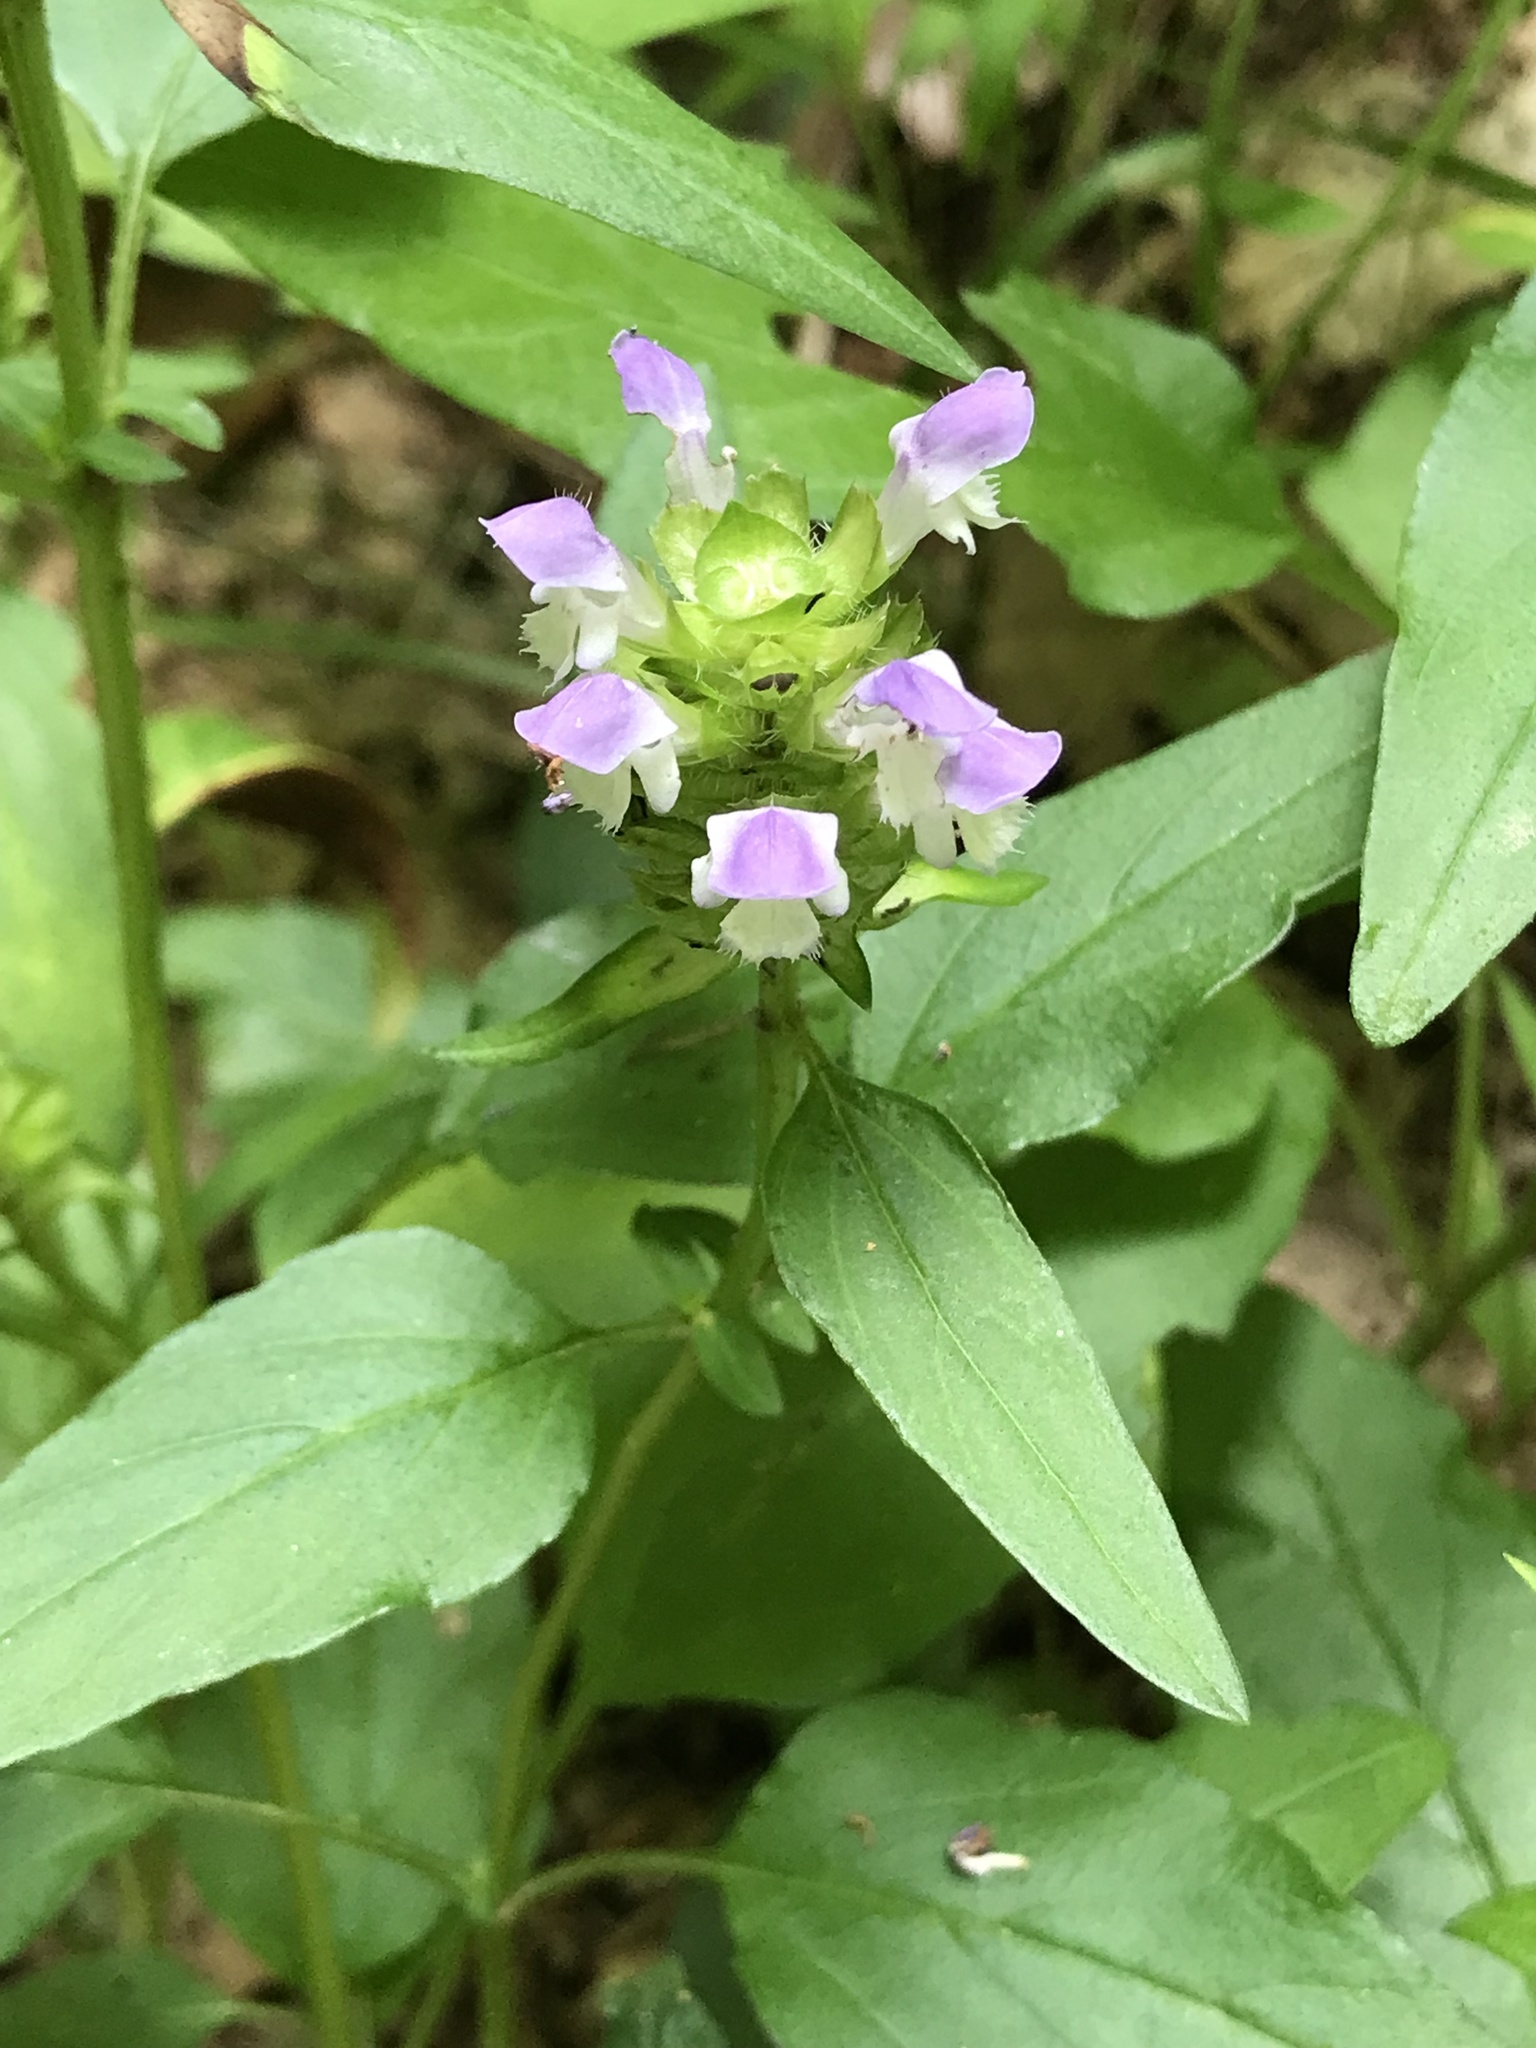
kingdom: Plantae
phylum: Tracheophyta
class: Magnoliopsida
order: Lamiales
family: Lamiaceae
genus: Prunella
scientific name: Prunella vulgaris
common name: Heal-all
